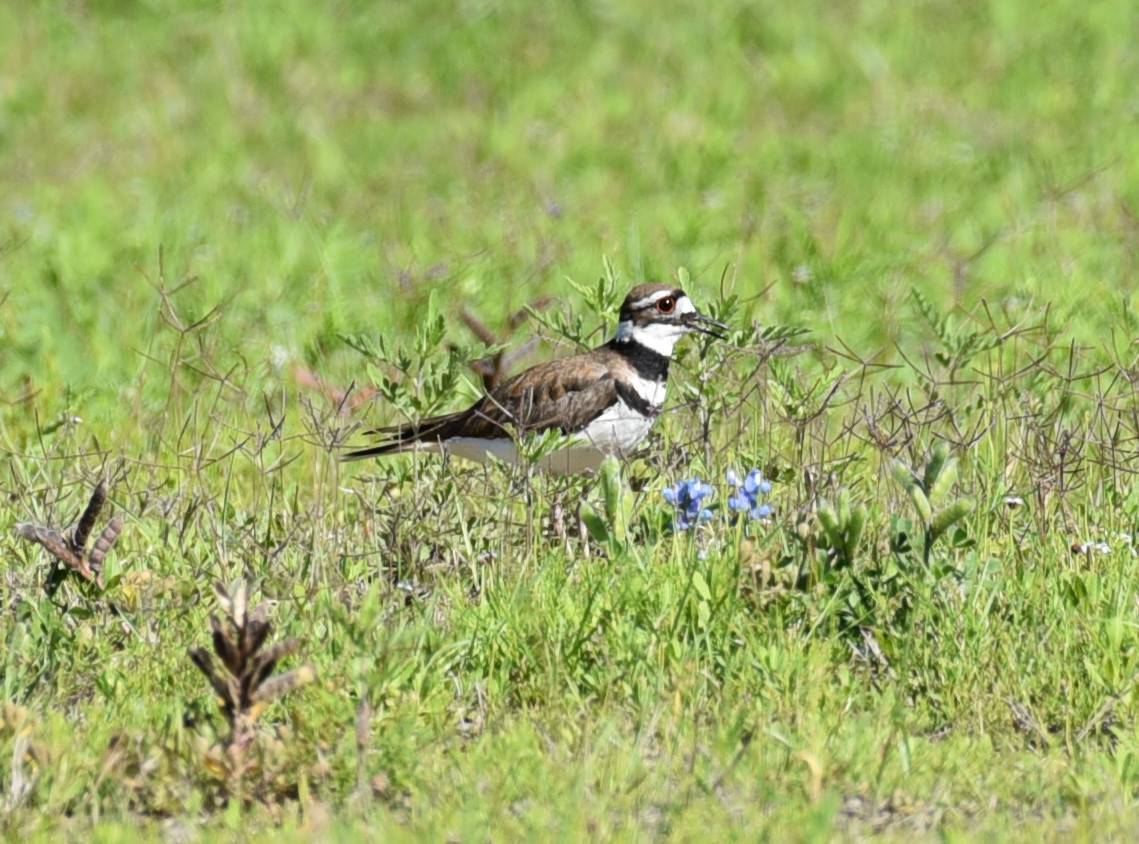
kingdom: Animalia
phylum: Chordata
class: Aves
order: Charadriiformes
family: Charadriidae
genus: Charadrius
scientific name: Charadrius vociferus
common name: Killdeer
